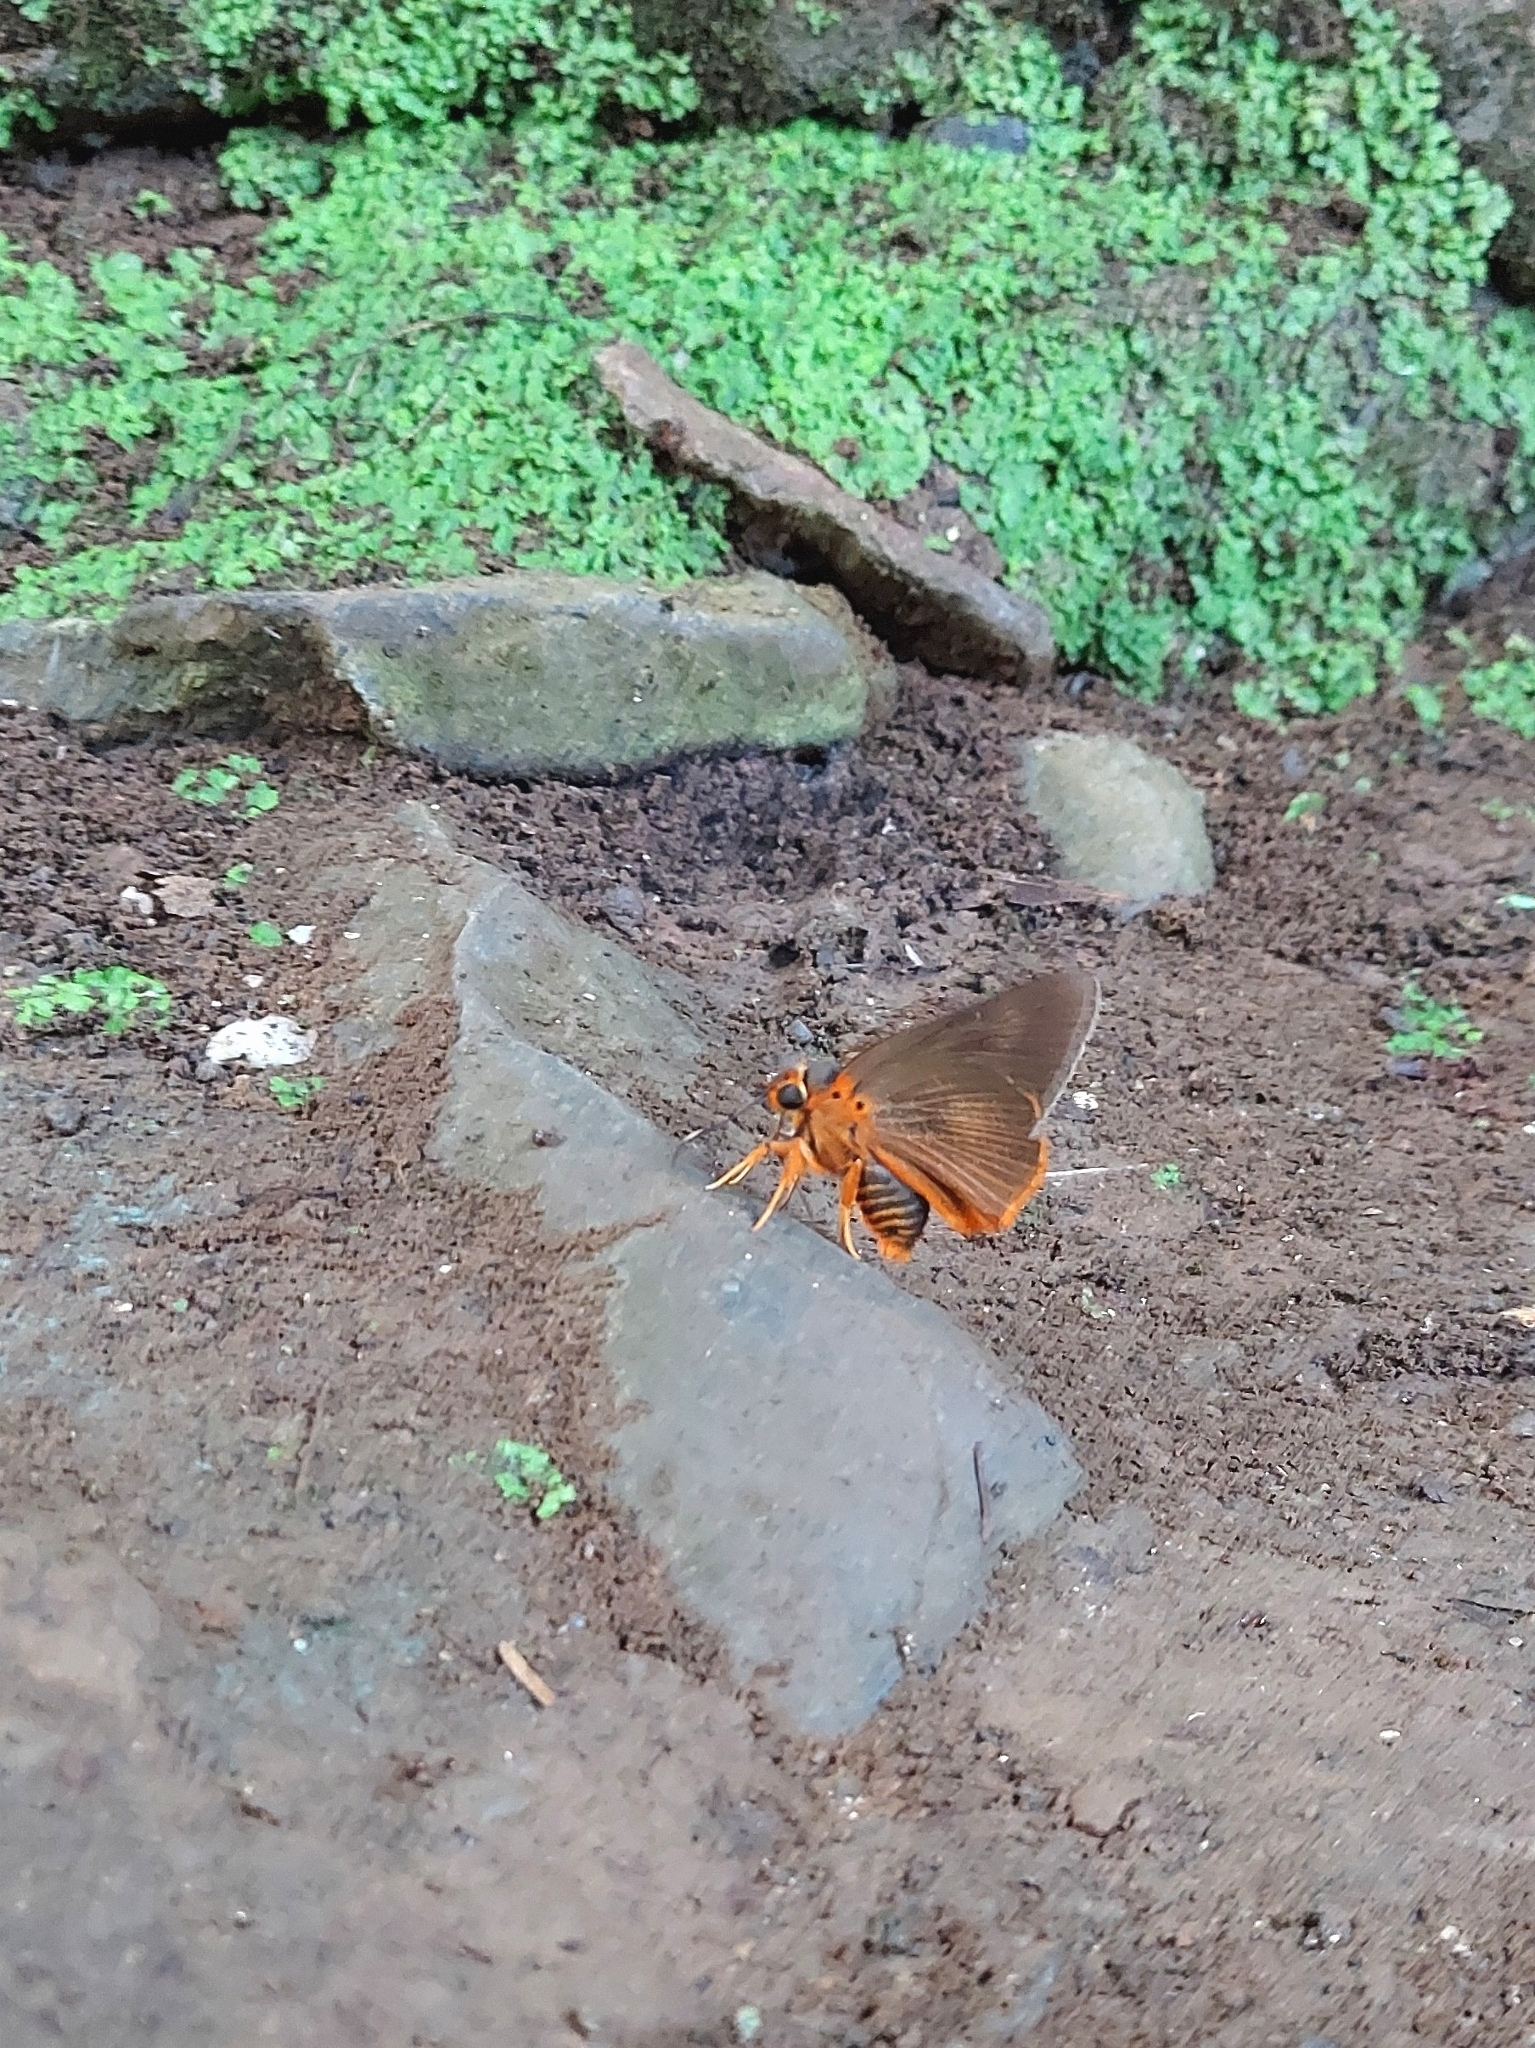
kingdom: Animalia
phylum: Arthropoda
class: Insecta
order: Lepidoptera
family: Hesperiidae
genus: Bibasis
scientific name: Bibasis jaina
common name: Common orange awlet
